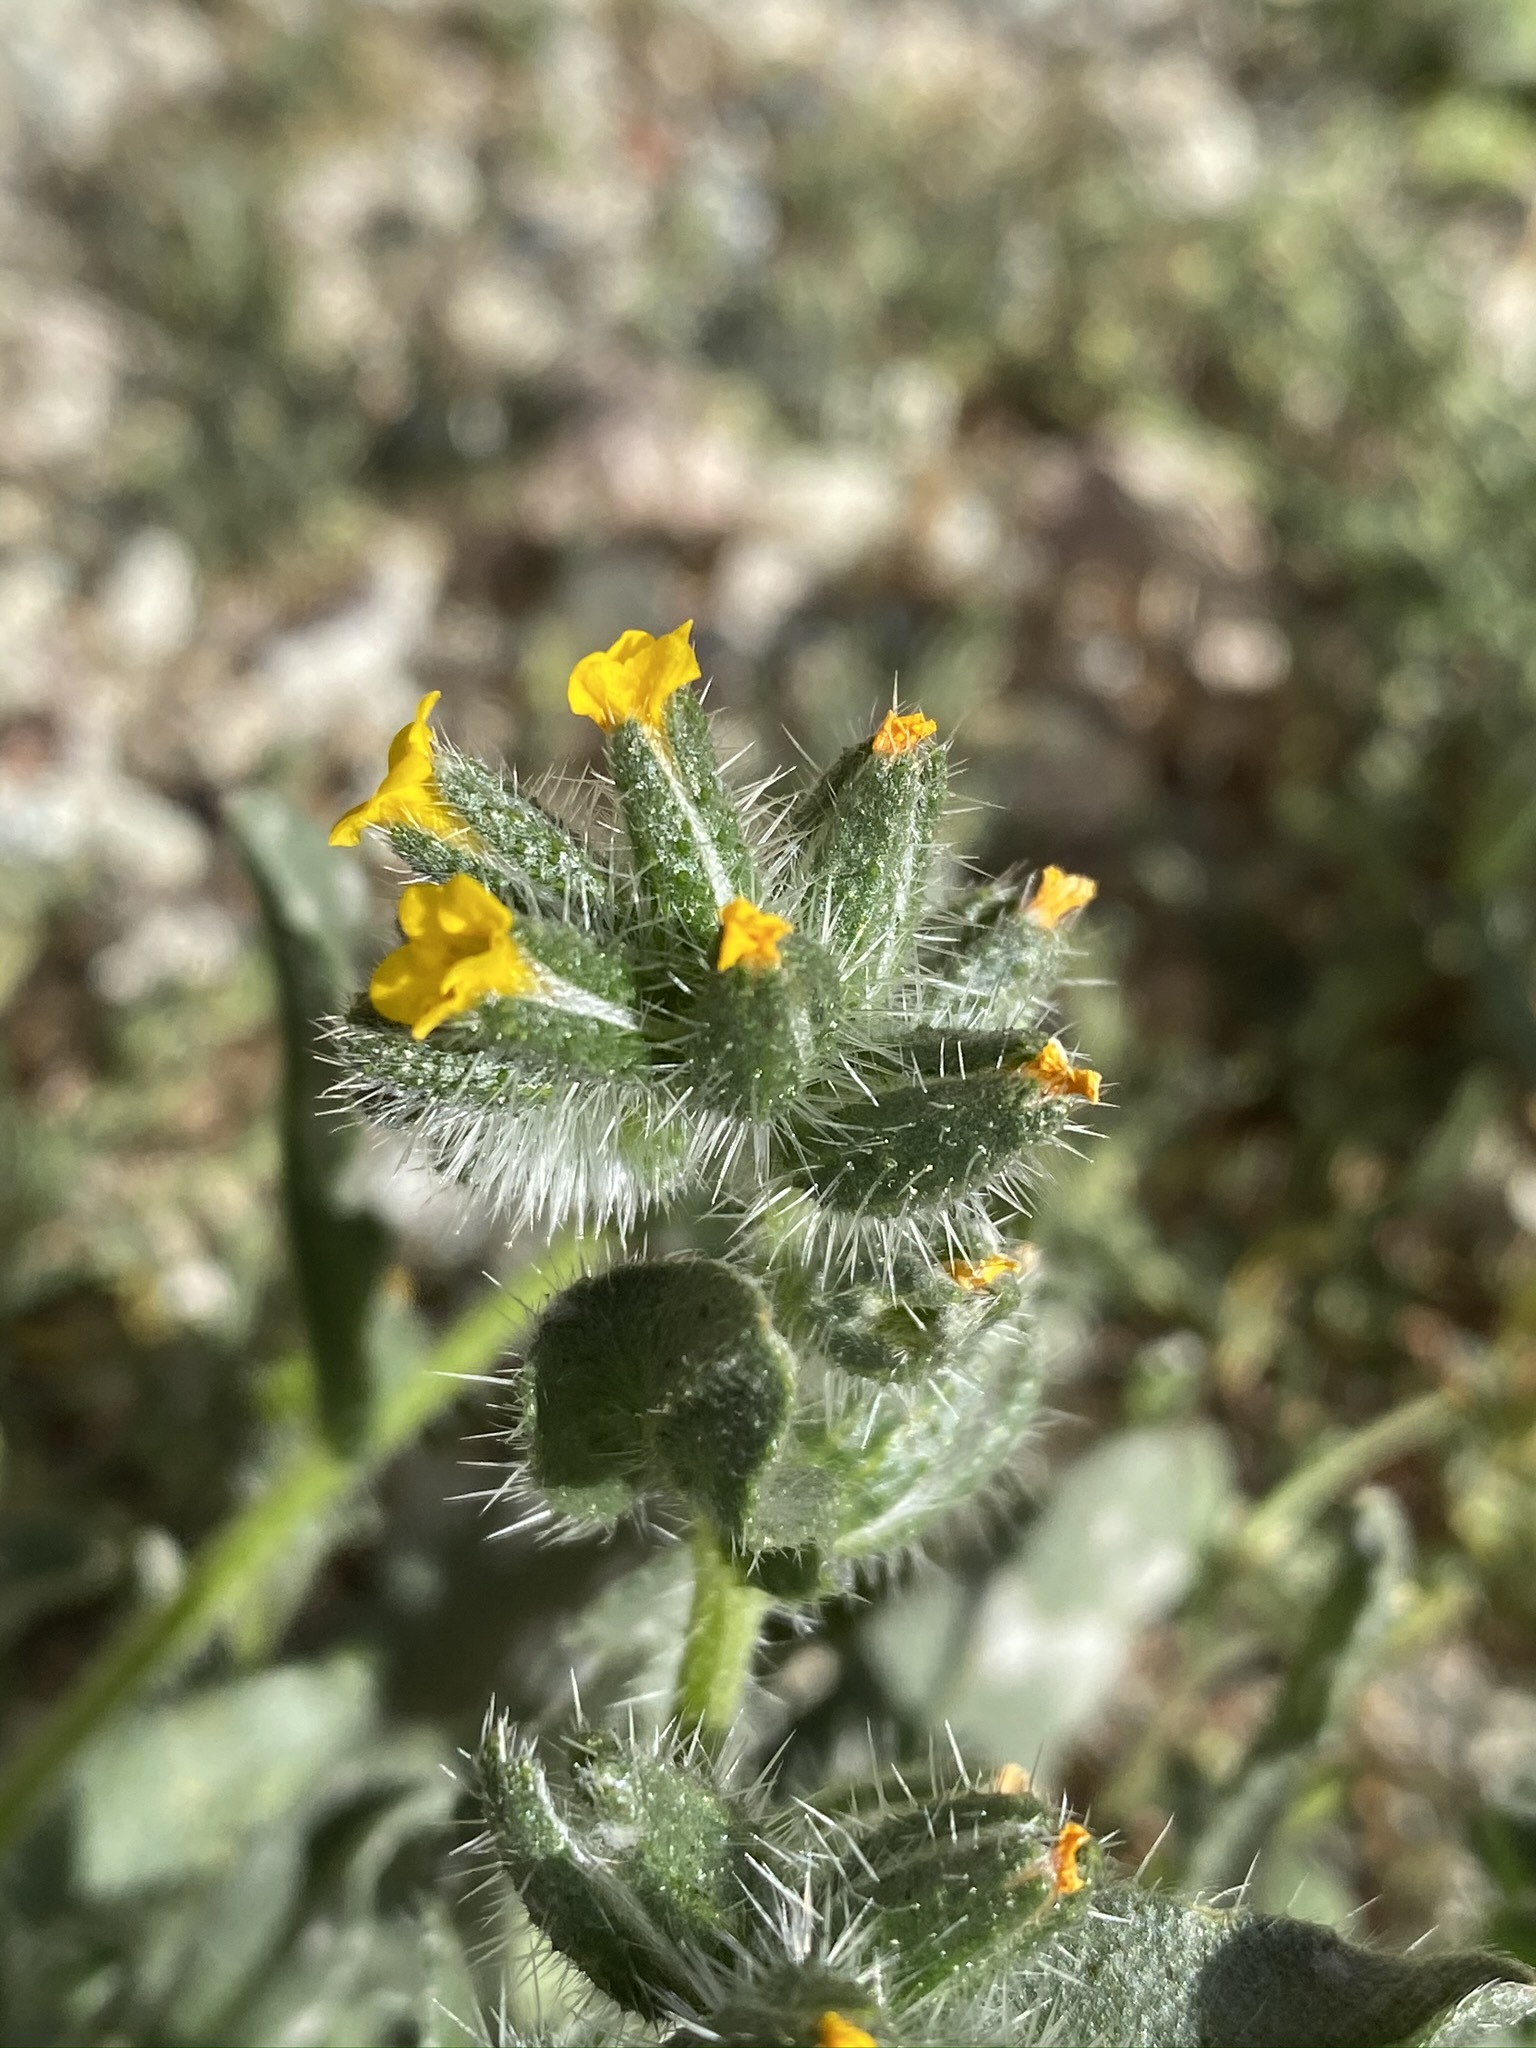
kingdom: Plantae
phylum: Tracheophyta
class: Magnoliopsida
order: Boraginales
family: Boraginaceae
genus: Amsinckia
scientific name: Amsinckia tessellata
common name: Tessellate fiddleneck
